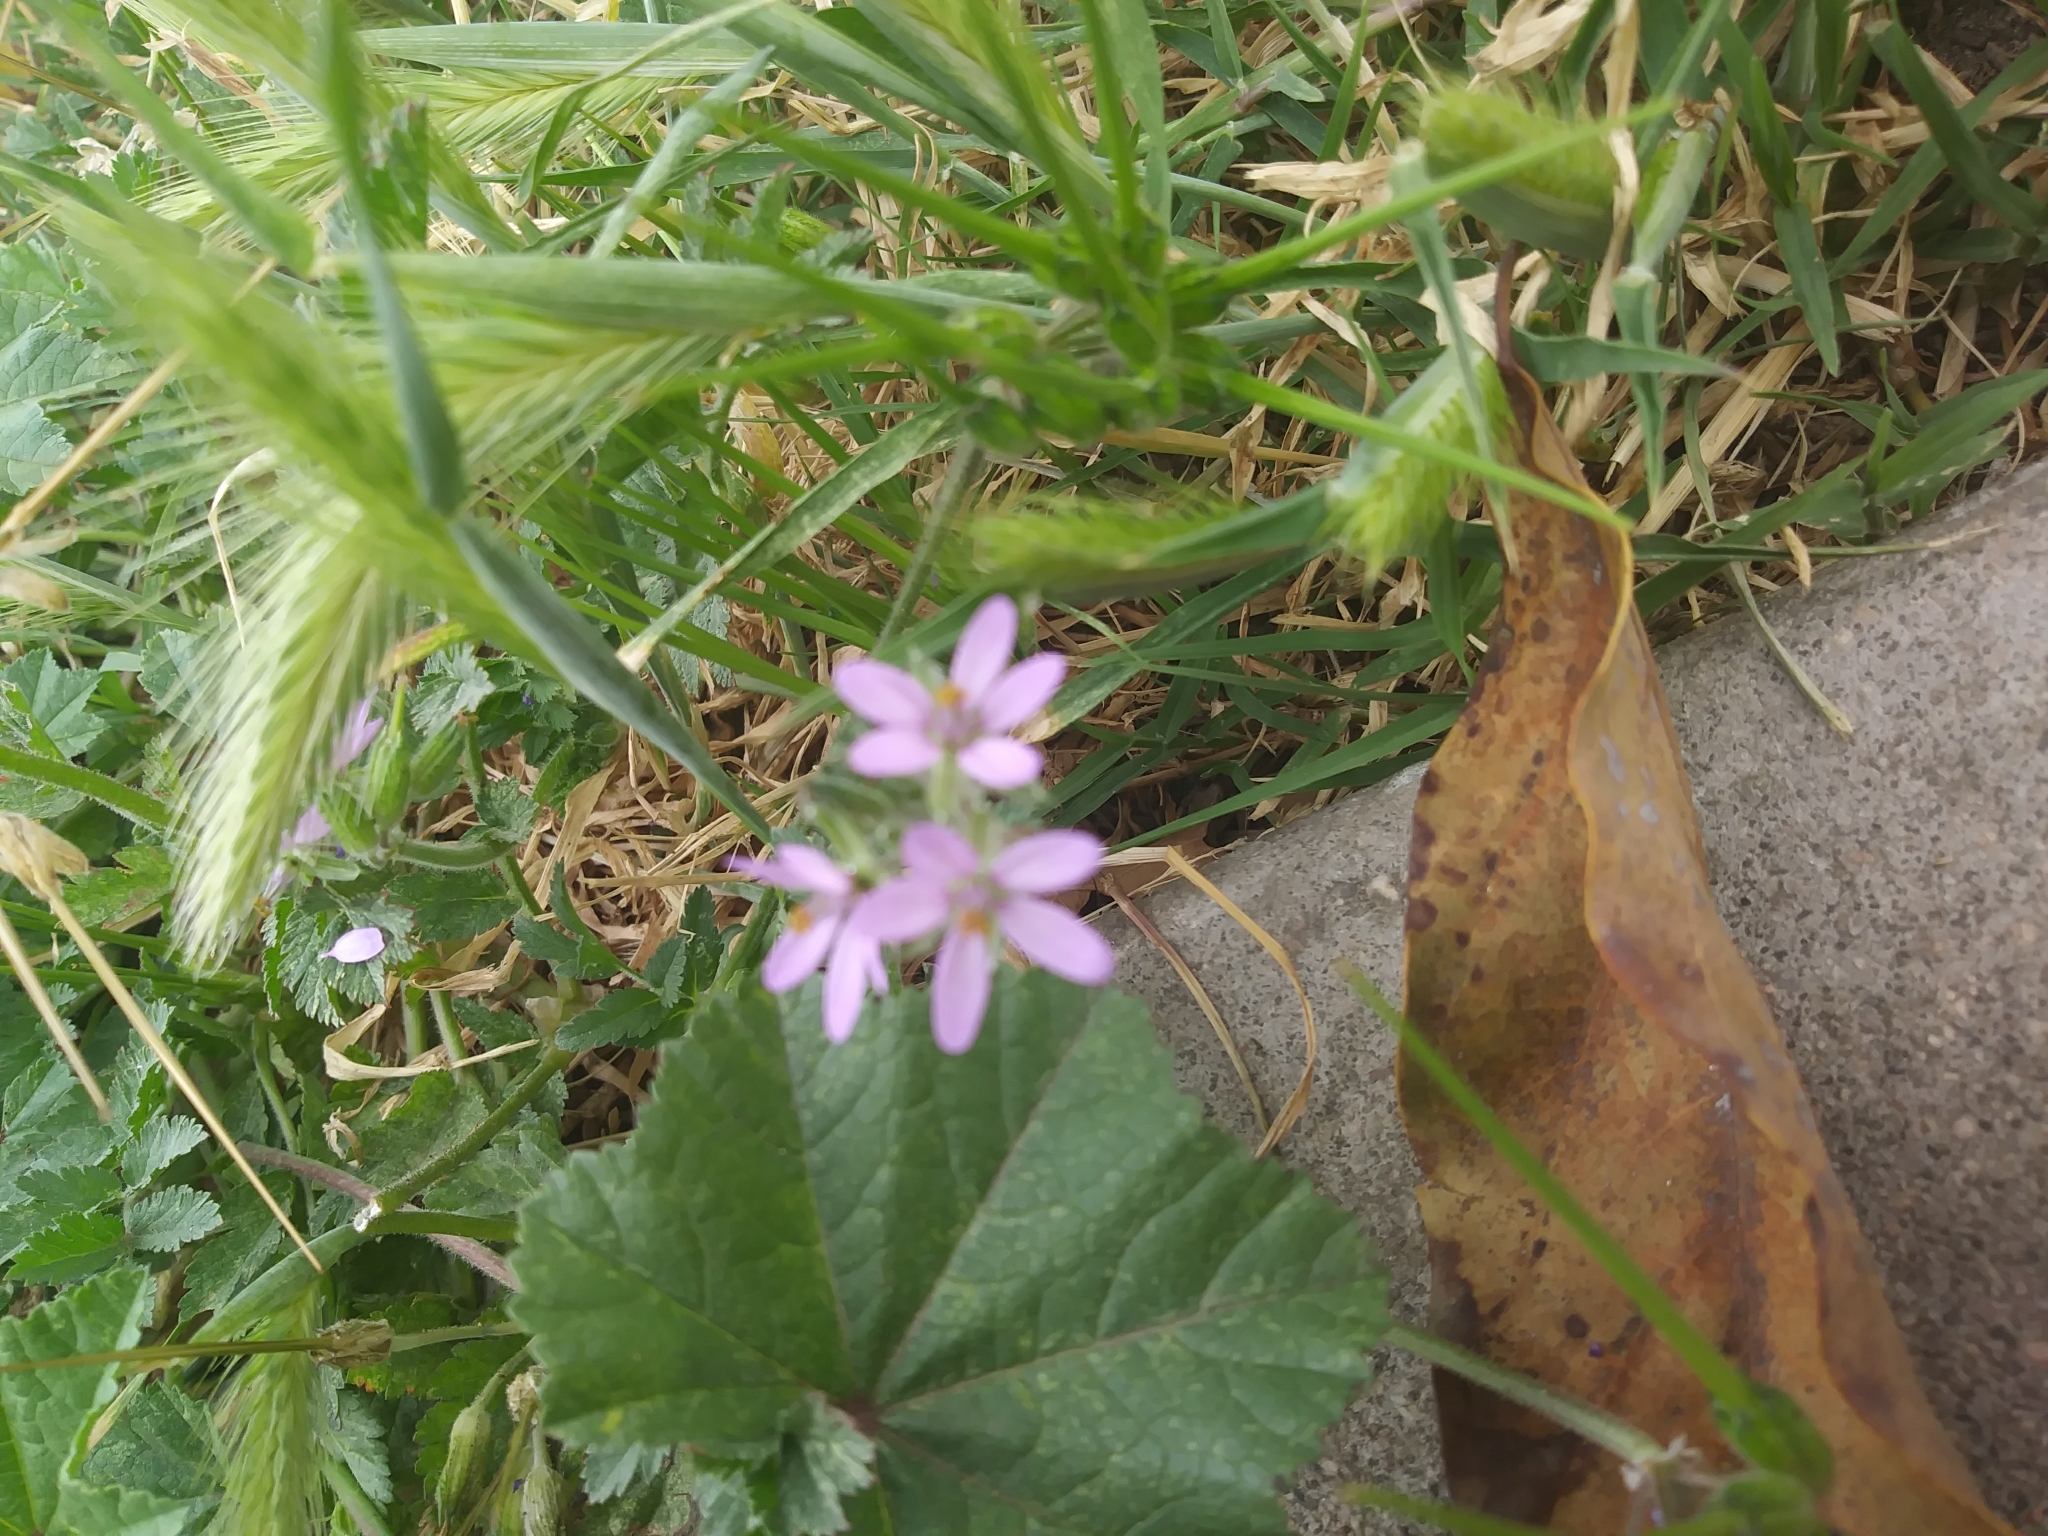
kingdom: Plantae
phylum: Tracheophyta
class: Magnoliopsida
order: Geraniales
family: Geraniaceae
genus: Erodium
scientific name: Erodium moschatum
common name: Musk stork's-bill
